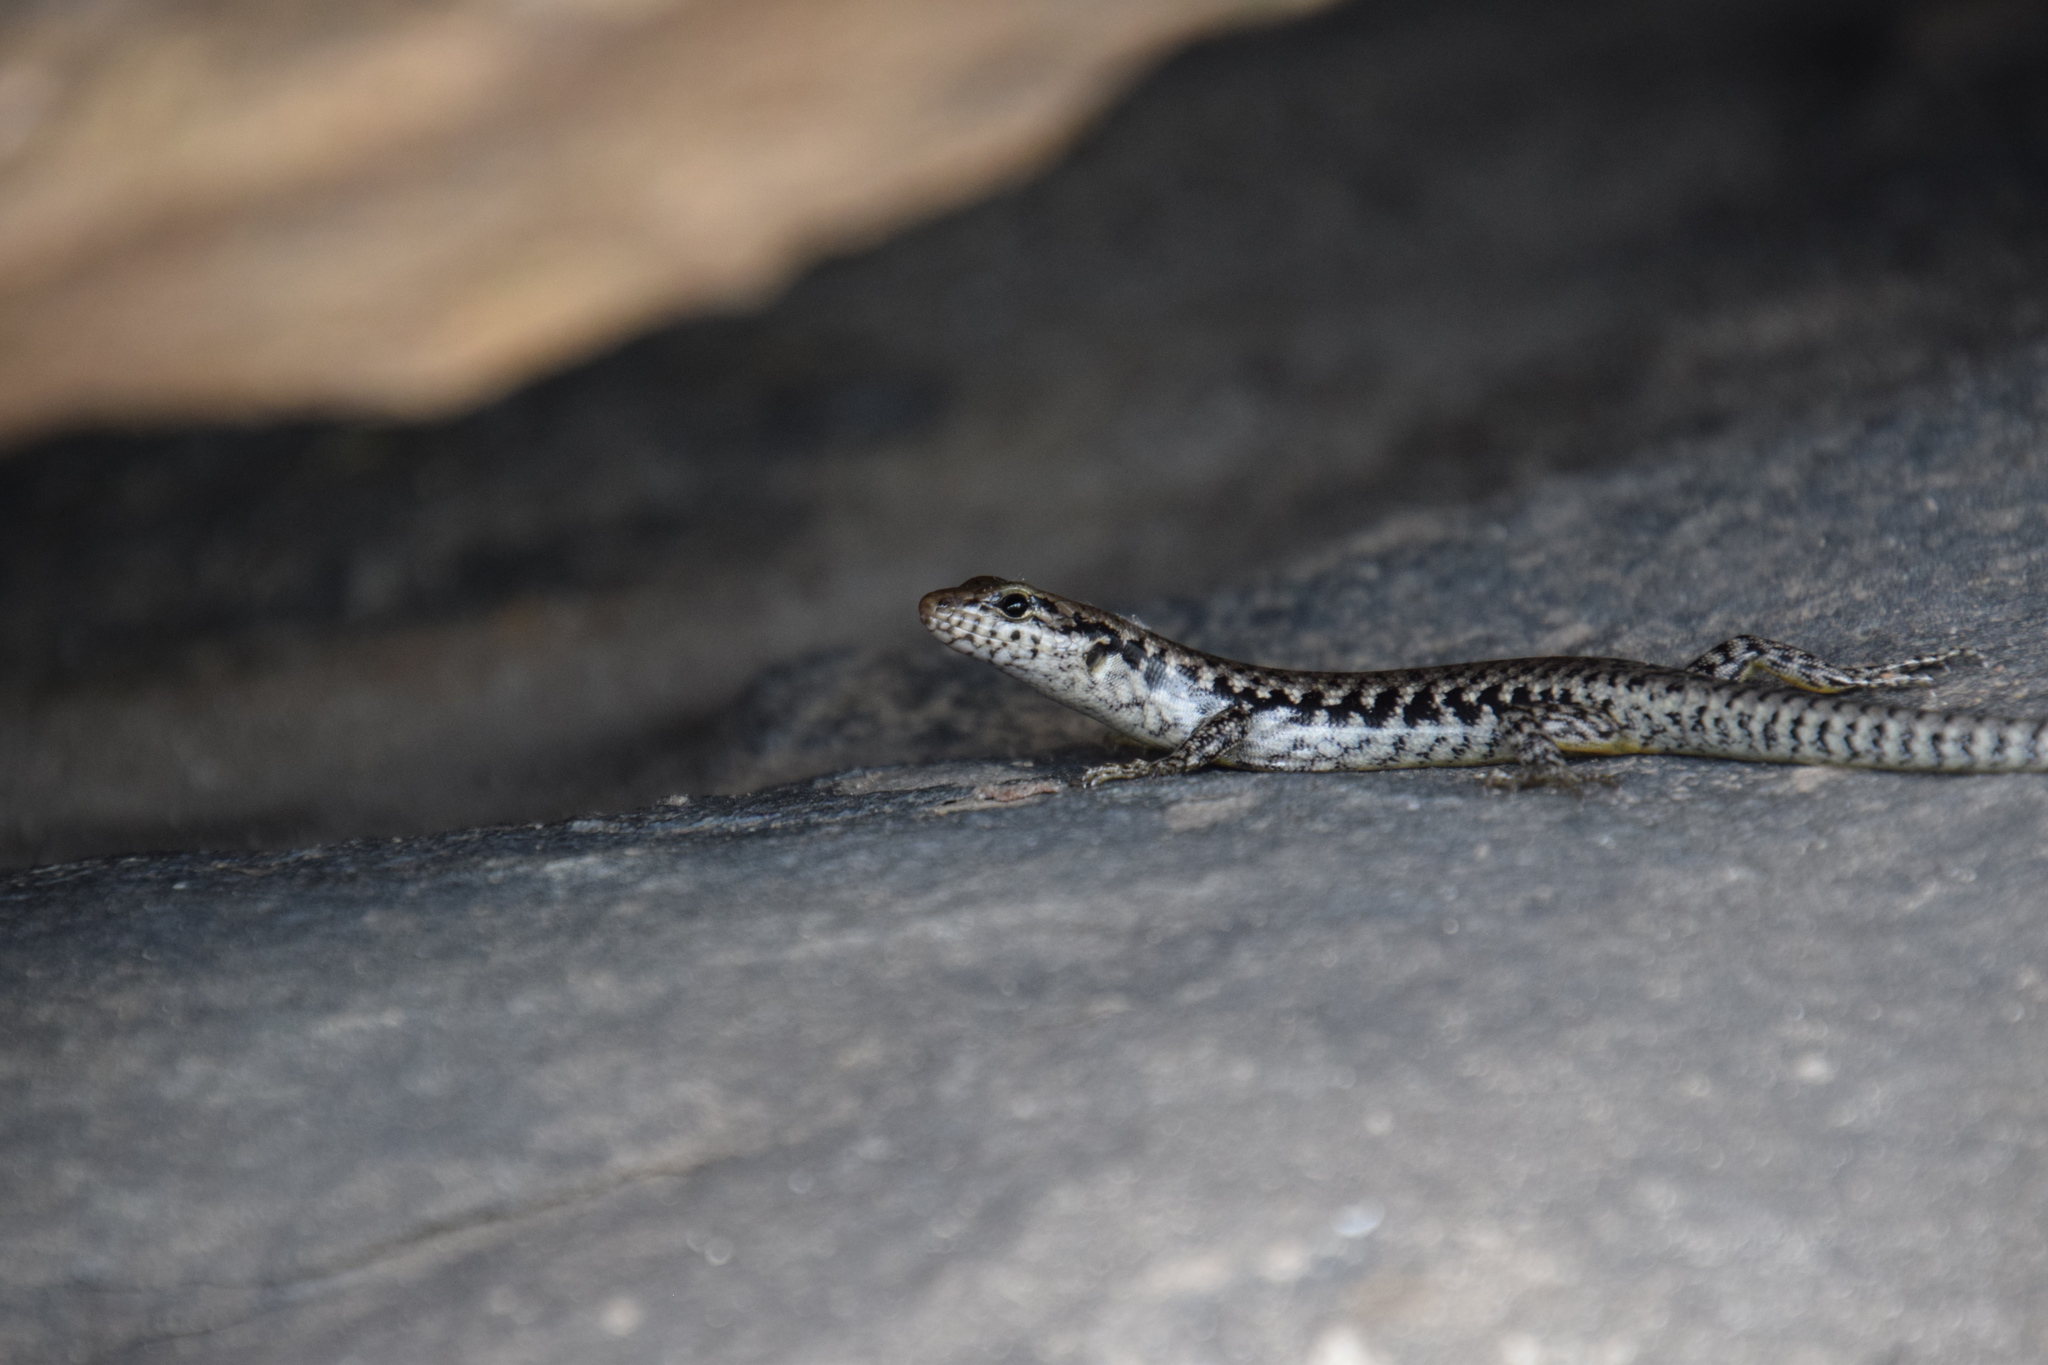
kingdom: Animalia
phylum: Chordata
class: Squamata
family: Scincidae
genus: Concinnia
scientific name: Concinnia tenuis
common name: Bar-sided forest-skink
